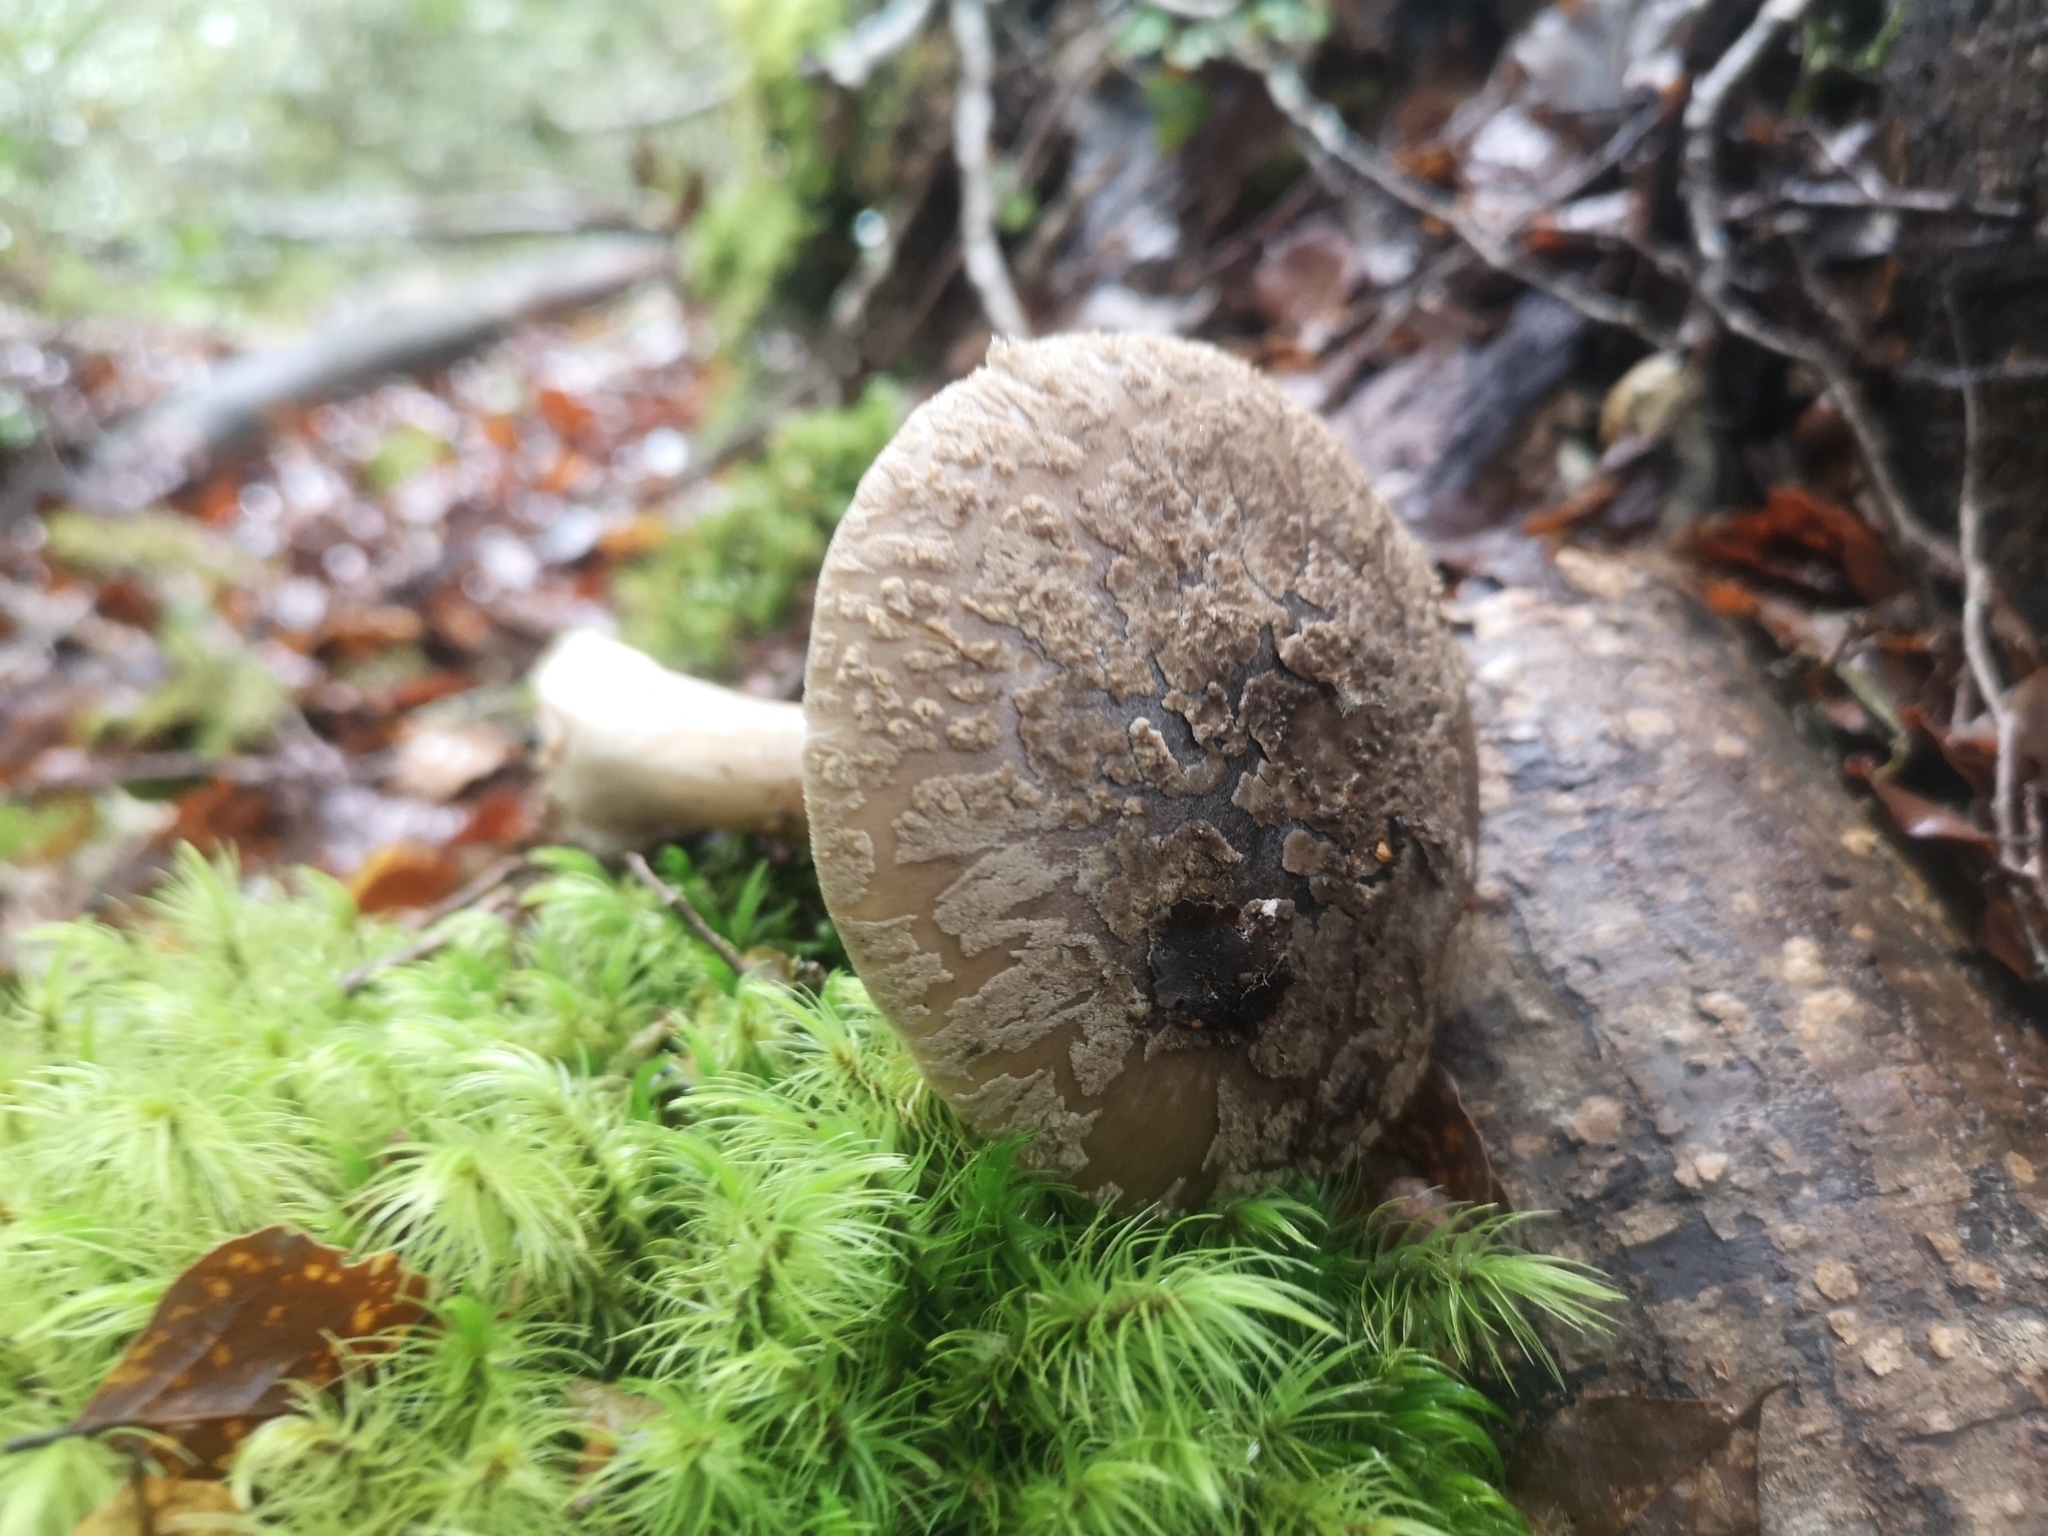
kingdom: Fungi
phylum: Basidiomycota
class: Agaricomycetes
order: Agaricales
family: Amanitaceae
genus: Amanita
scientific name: Amanita nothofagi
